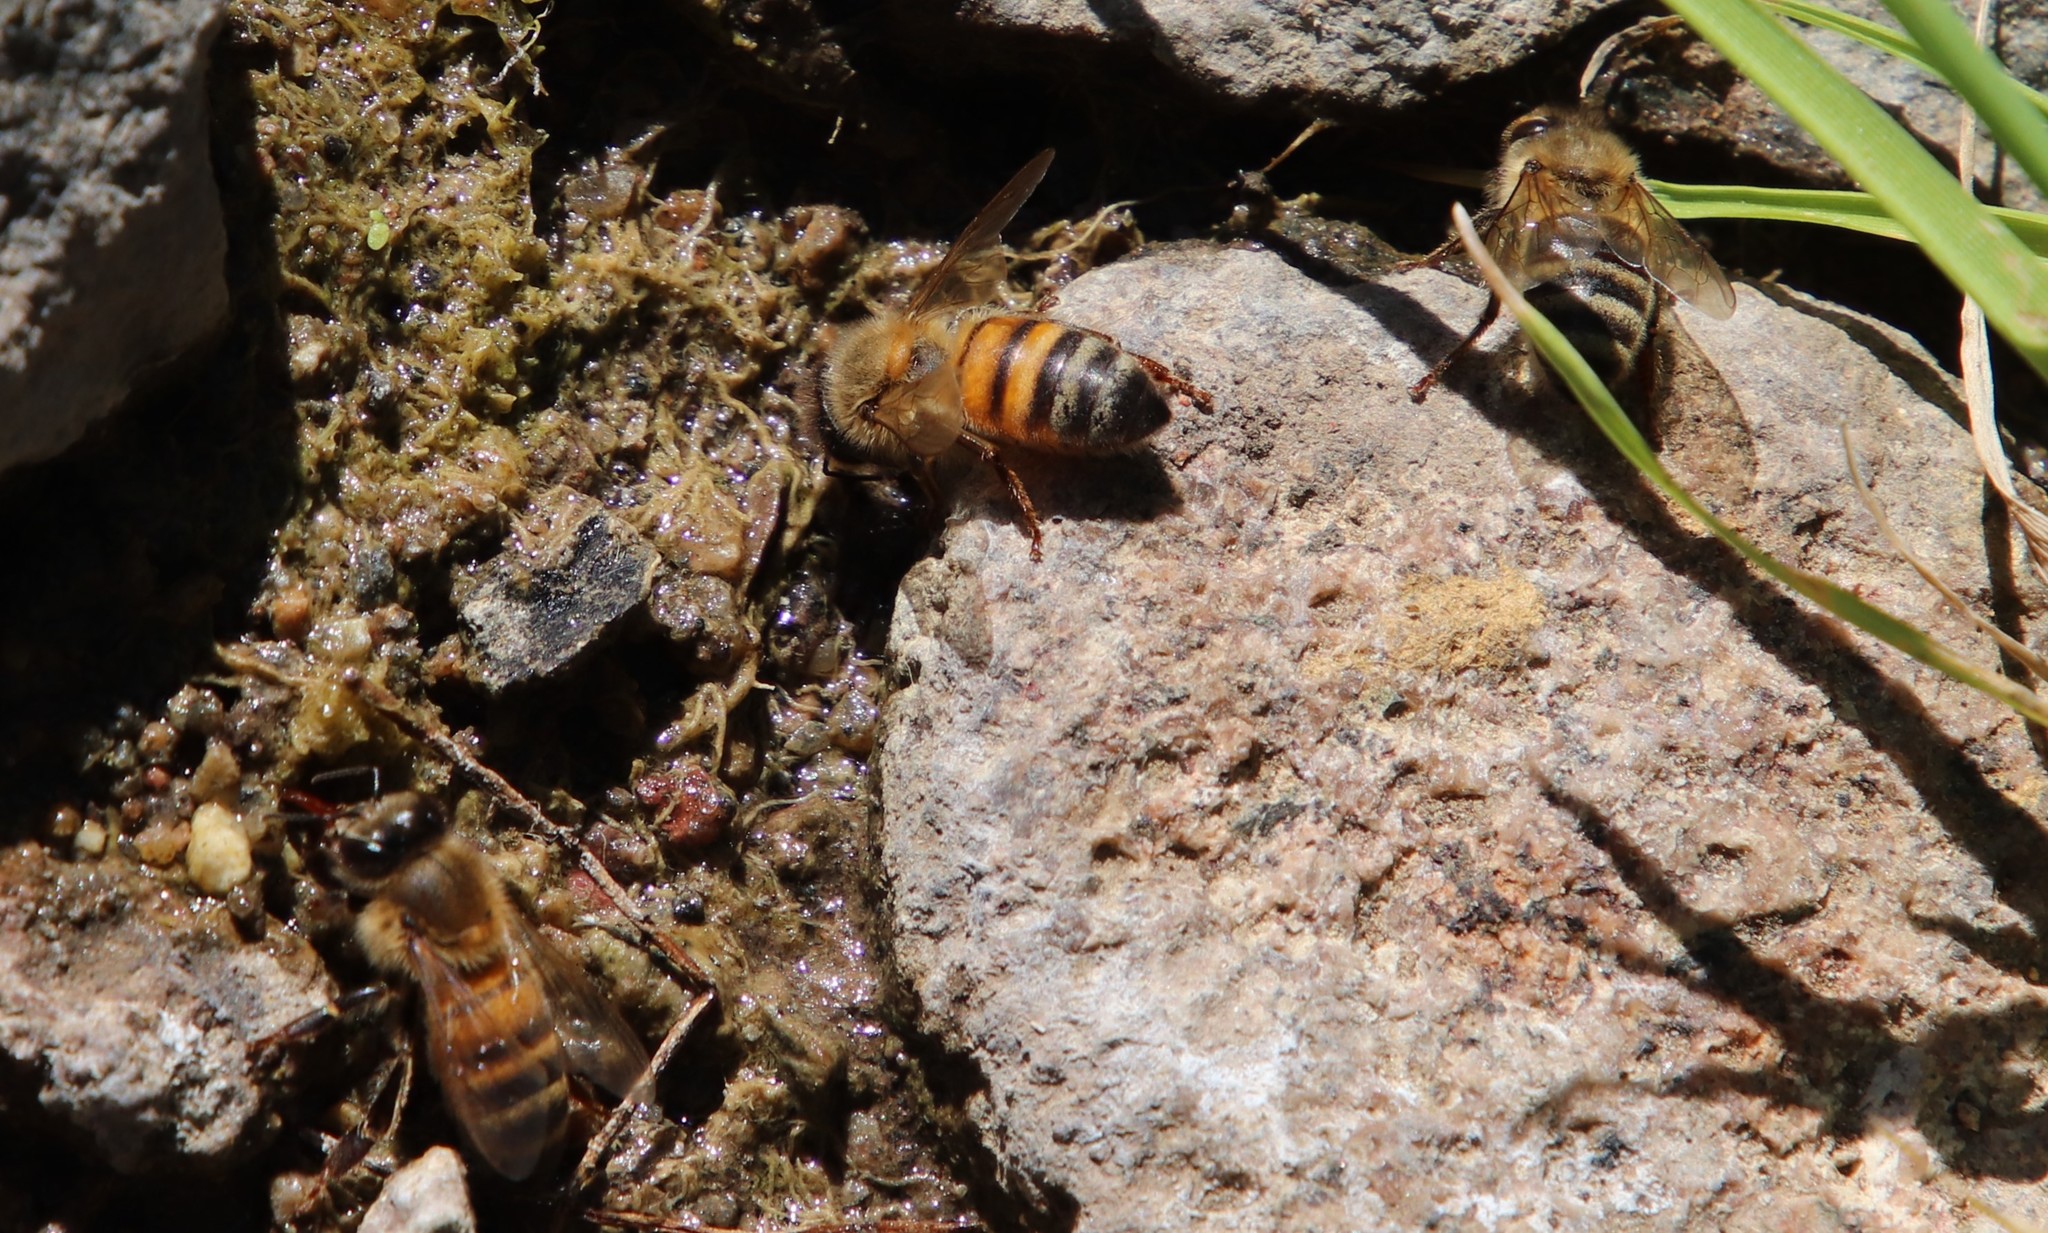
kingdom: Animalia
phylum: Arthropoda
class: Insecta
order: Hymenoptera
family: Apidae
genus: Apis
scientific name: Apis mellifera
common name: Honey bee
